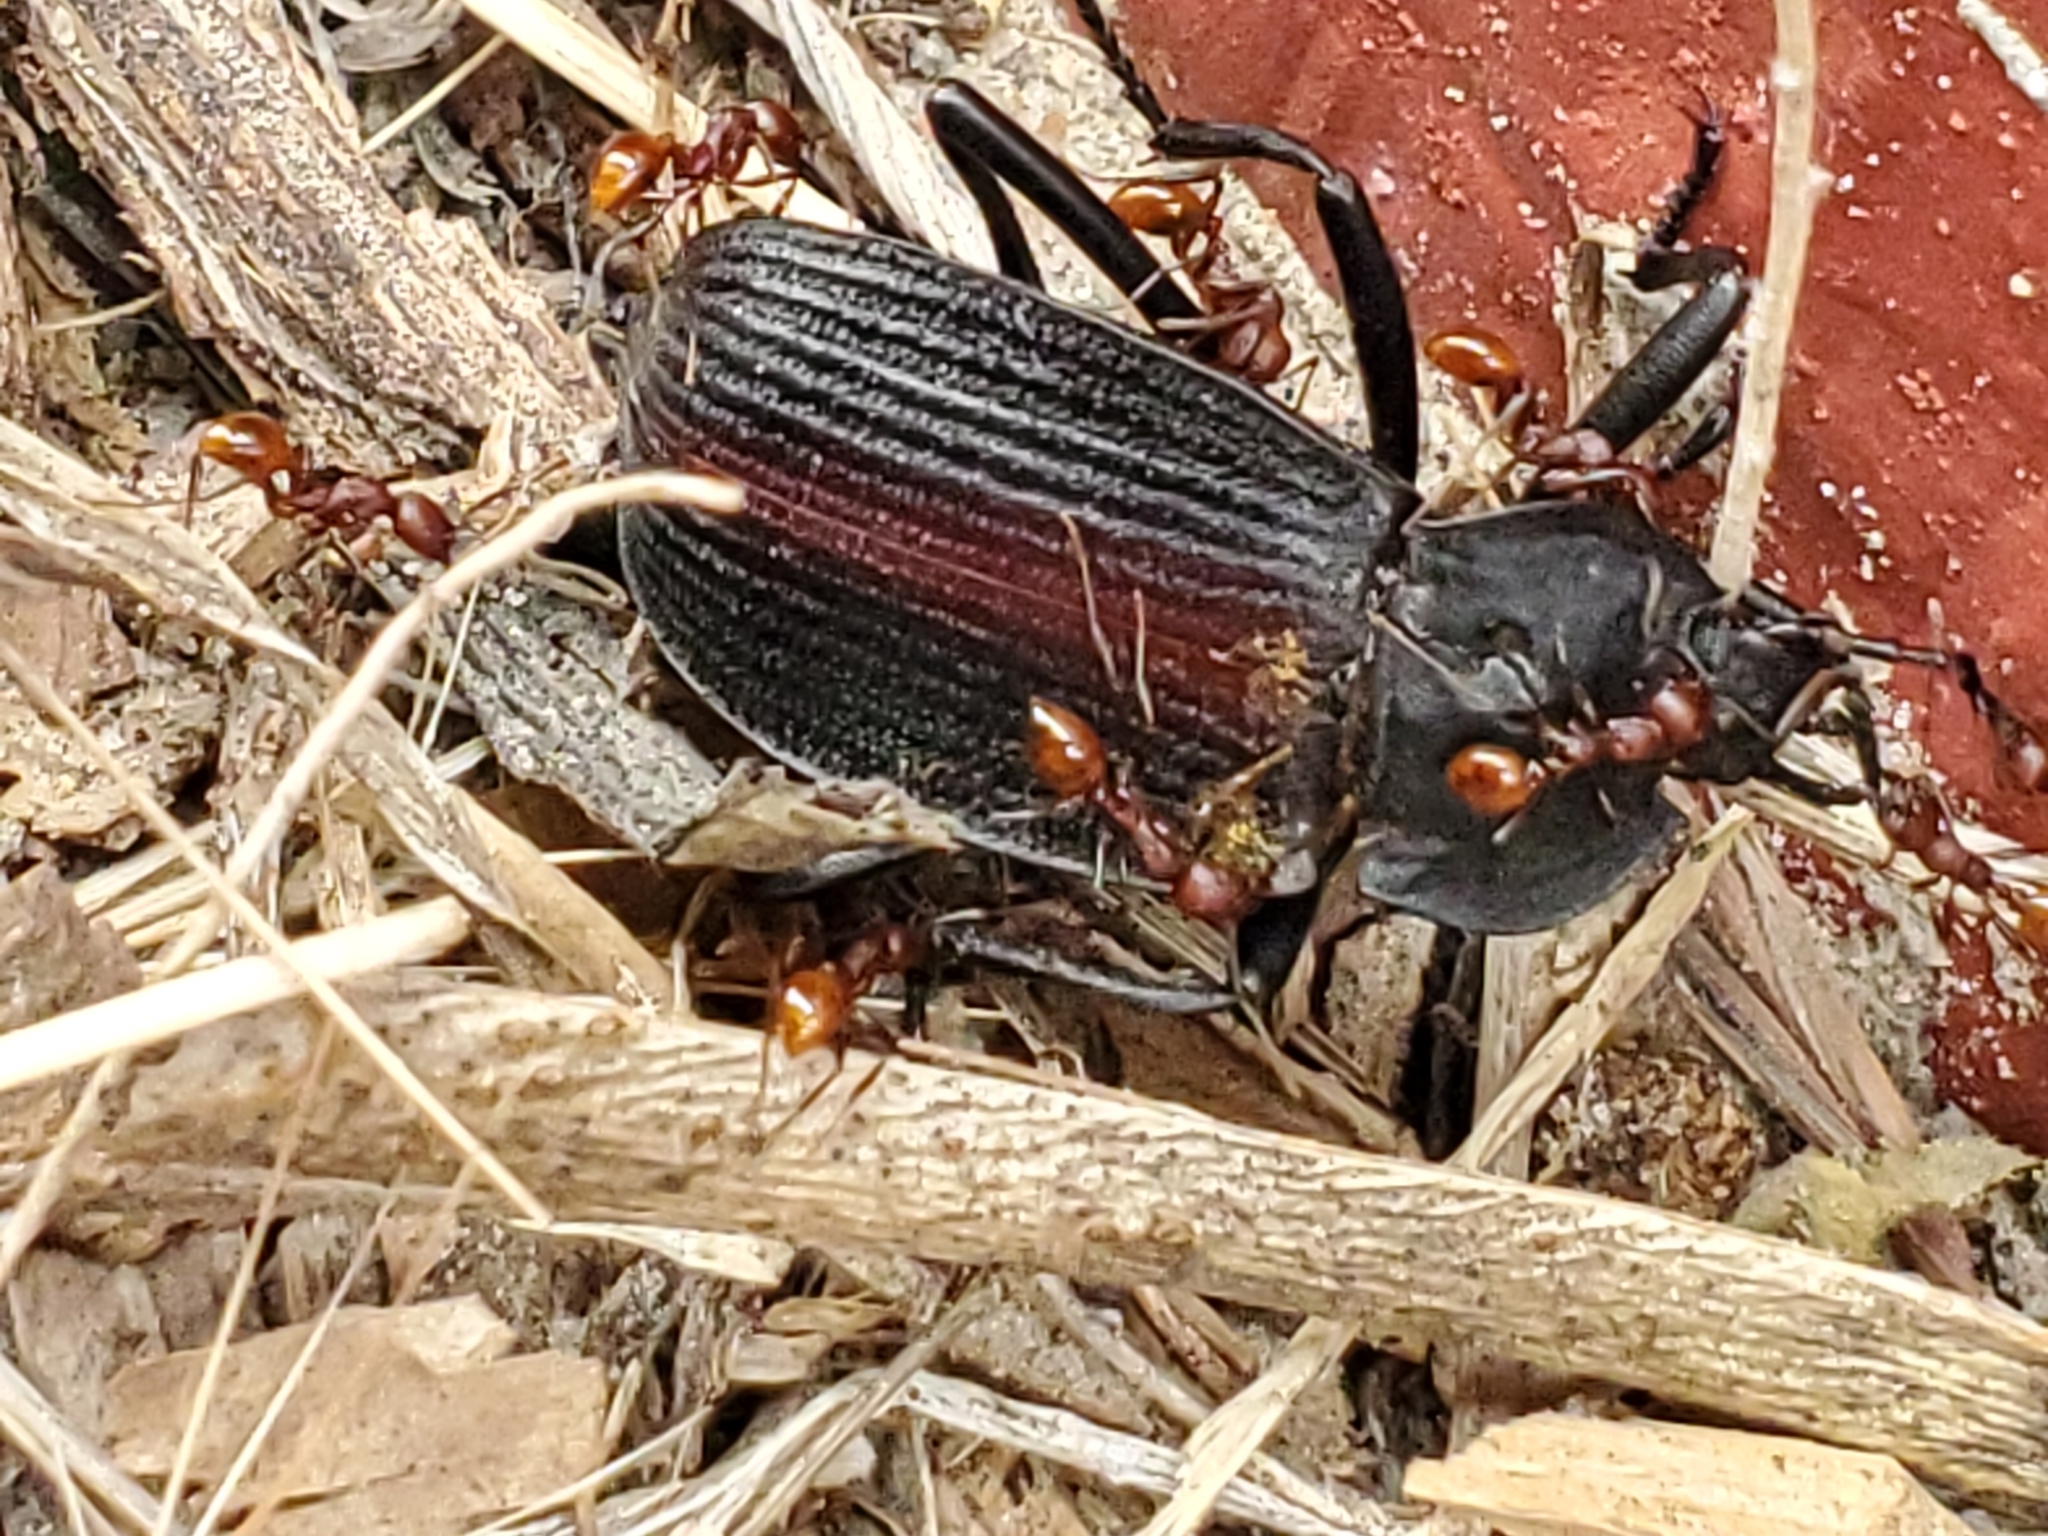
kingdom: Animalia
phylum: Arthropoda
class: Insecta
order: Coleoptera
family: Tenebrionidae
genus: Eleodes
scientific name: Eleodes suturalis
